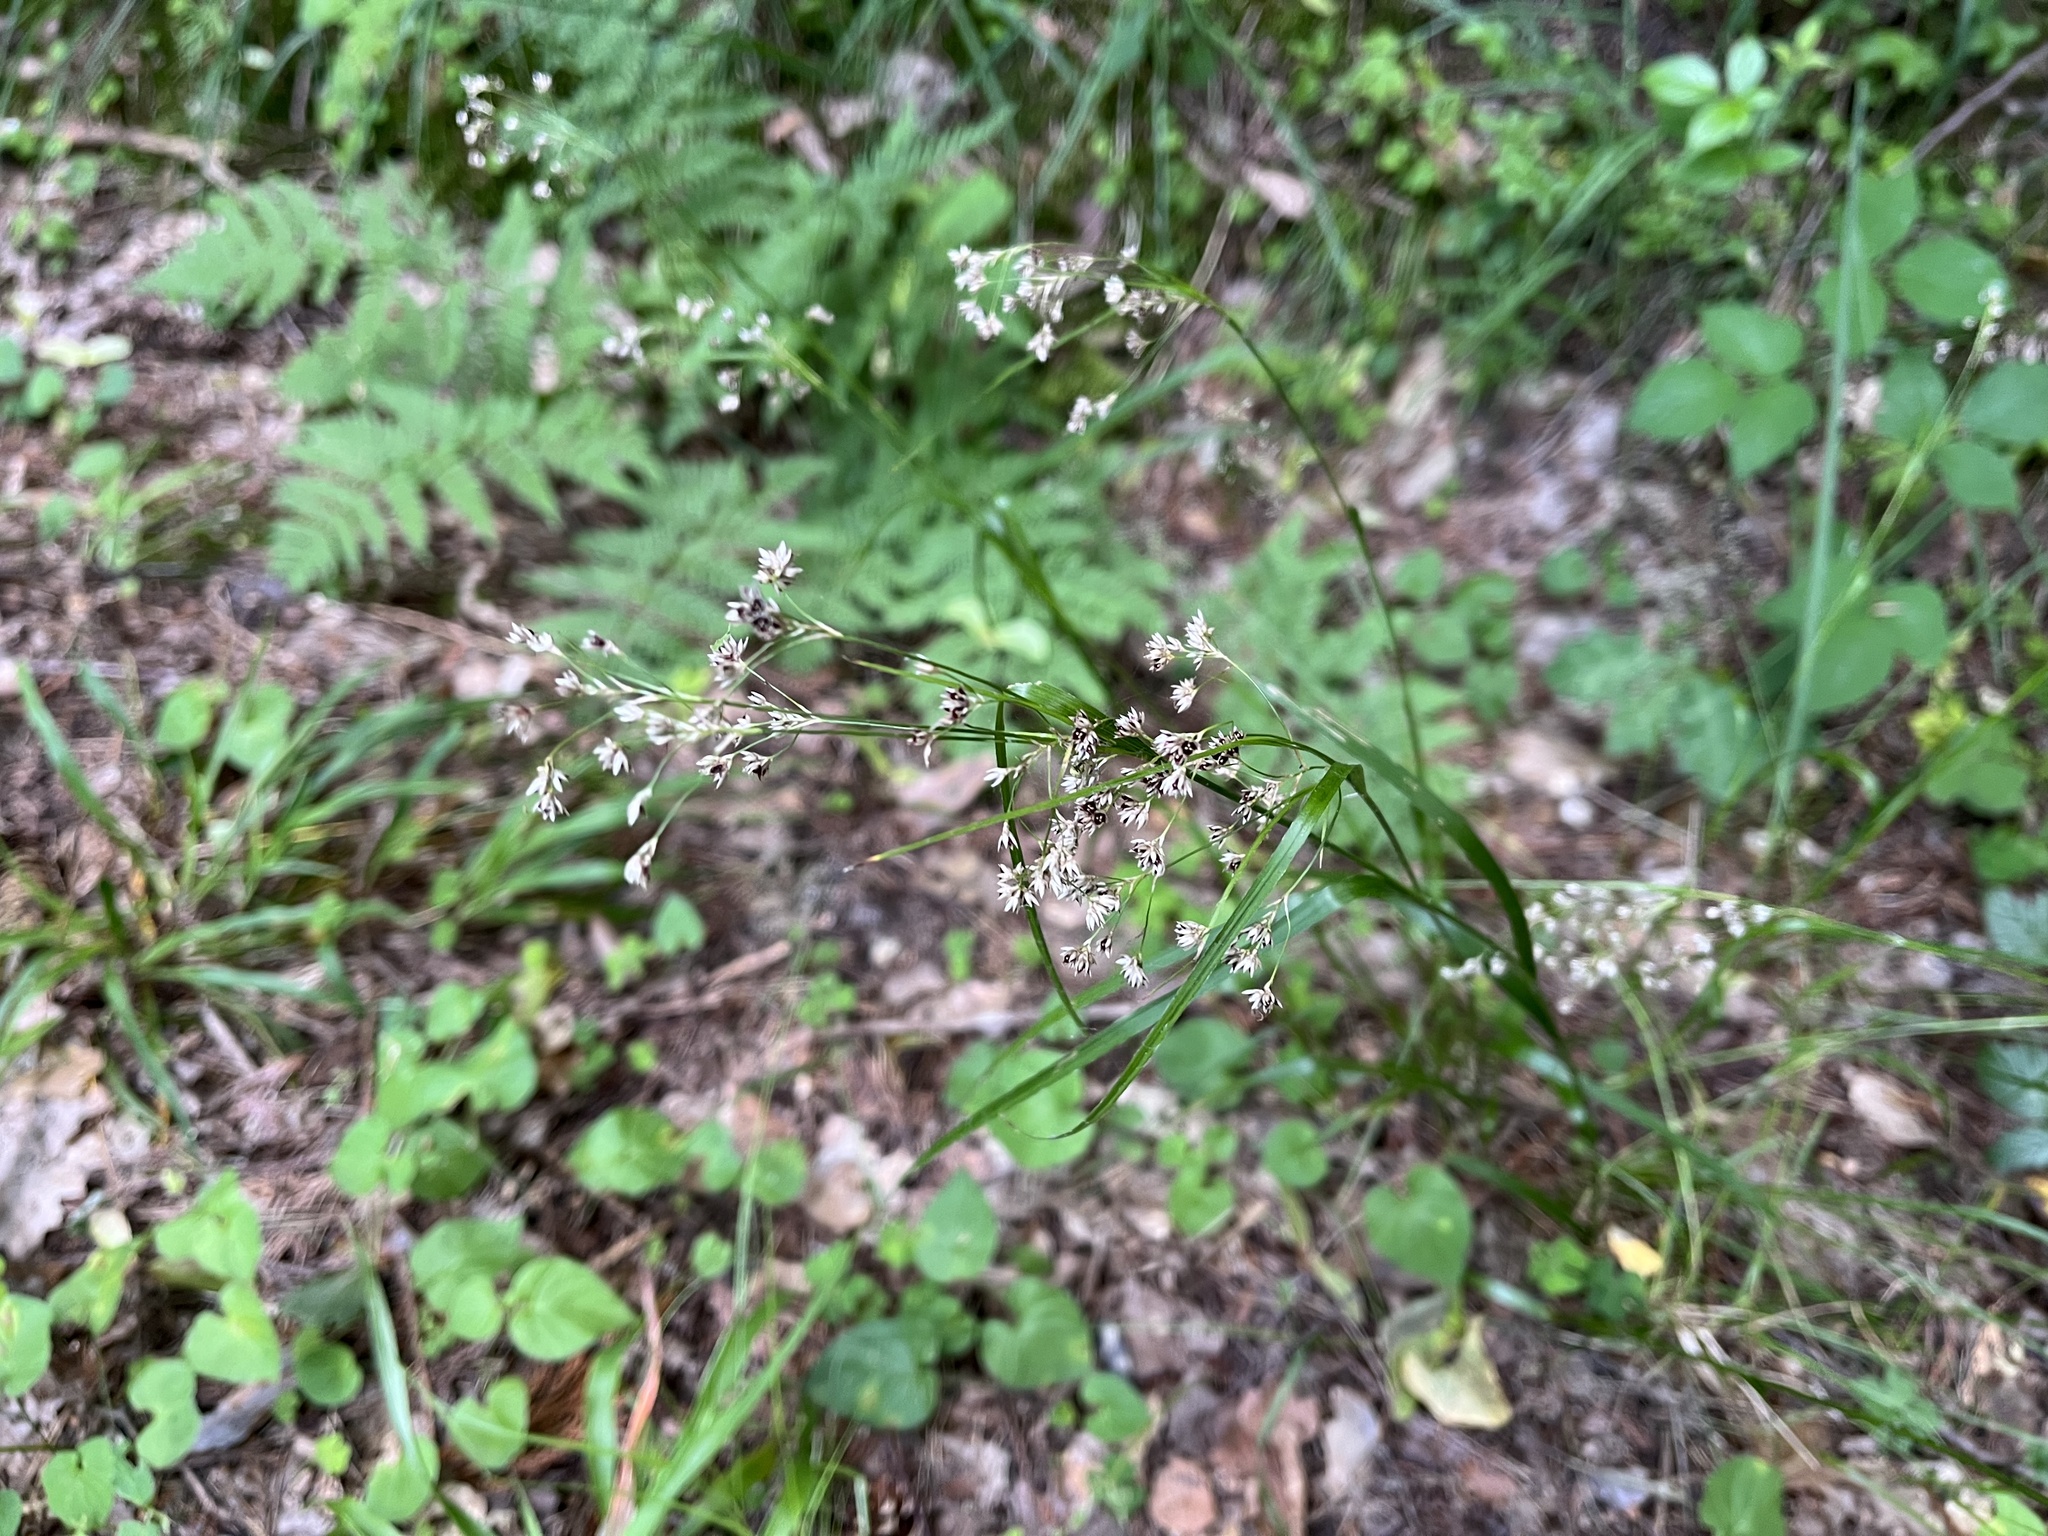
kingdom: Plantae
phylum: Tracheophyta
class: Liliopsida
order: Poales
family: Juncaceae
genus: Luzula
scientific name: Luzula luzuloides
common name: White wood-rush
